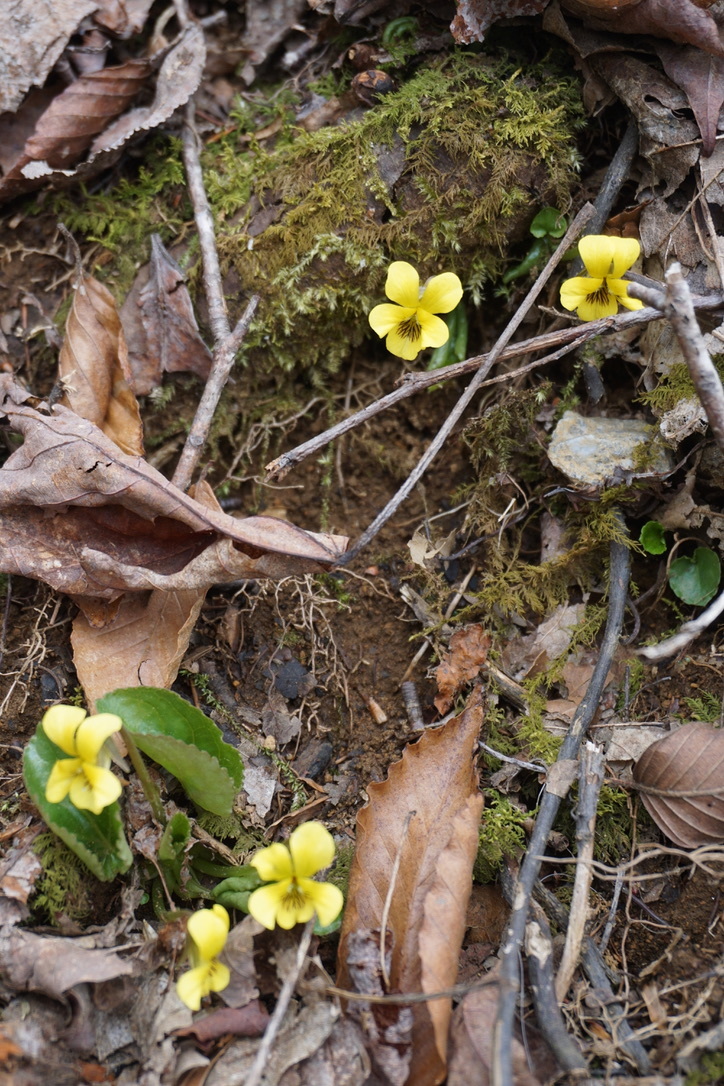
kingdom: Plantae
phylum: Tracheophyta
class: Magnoliopsida
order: Malpighiales
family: Violaceae
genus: Viola
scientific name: Viola rotundifolia
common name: Early yellow violet
